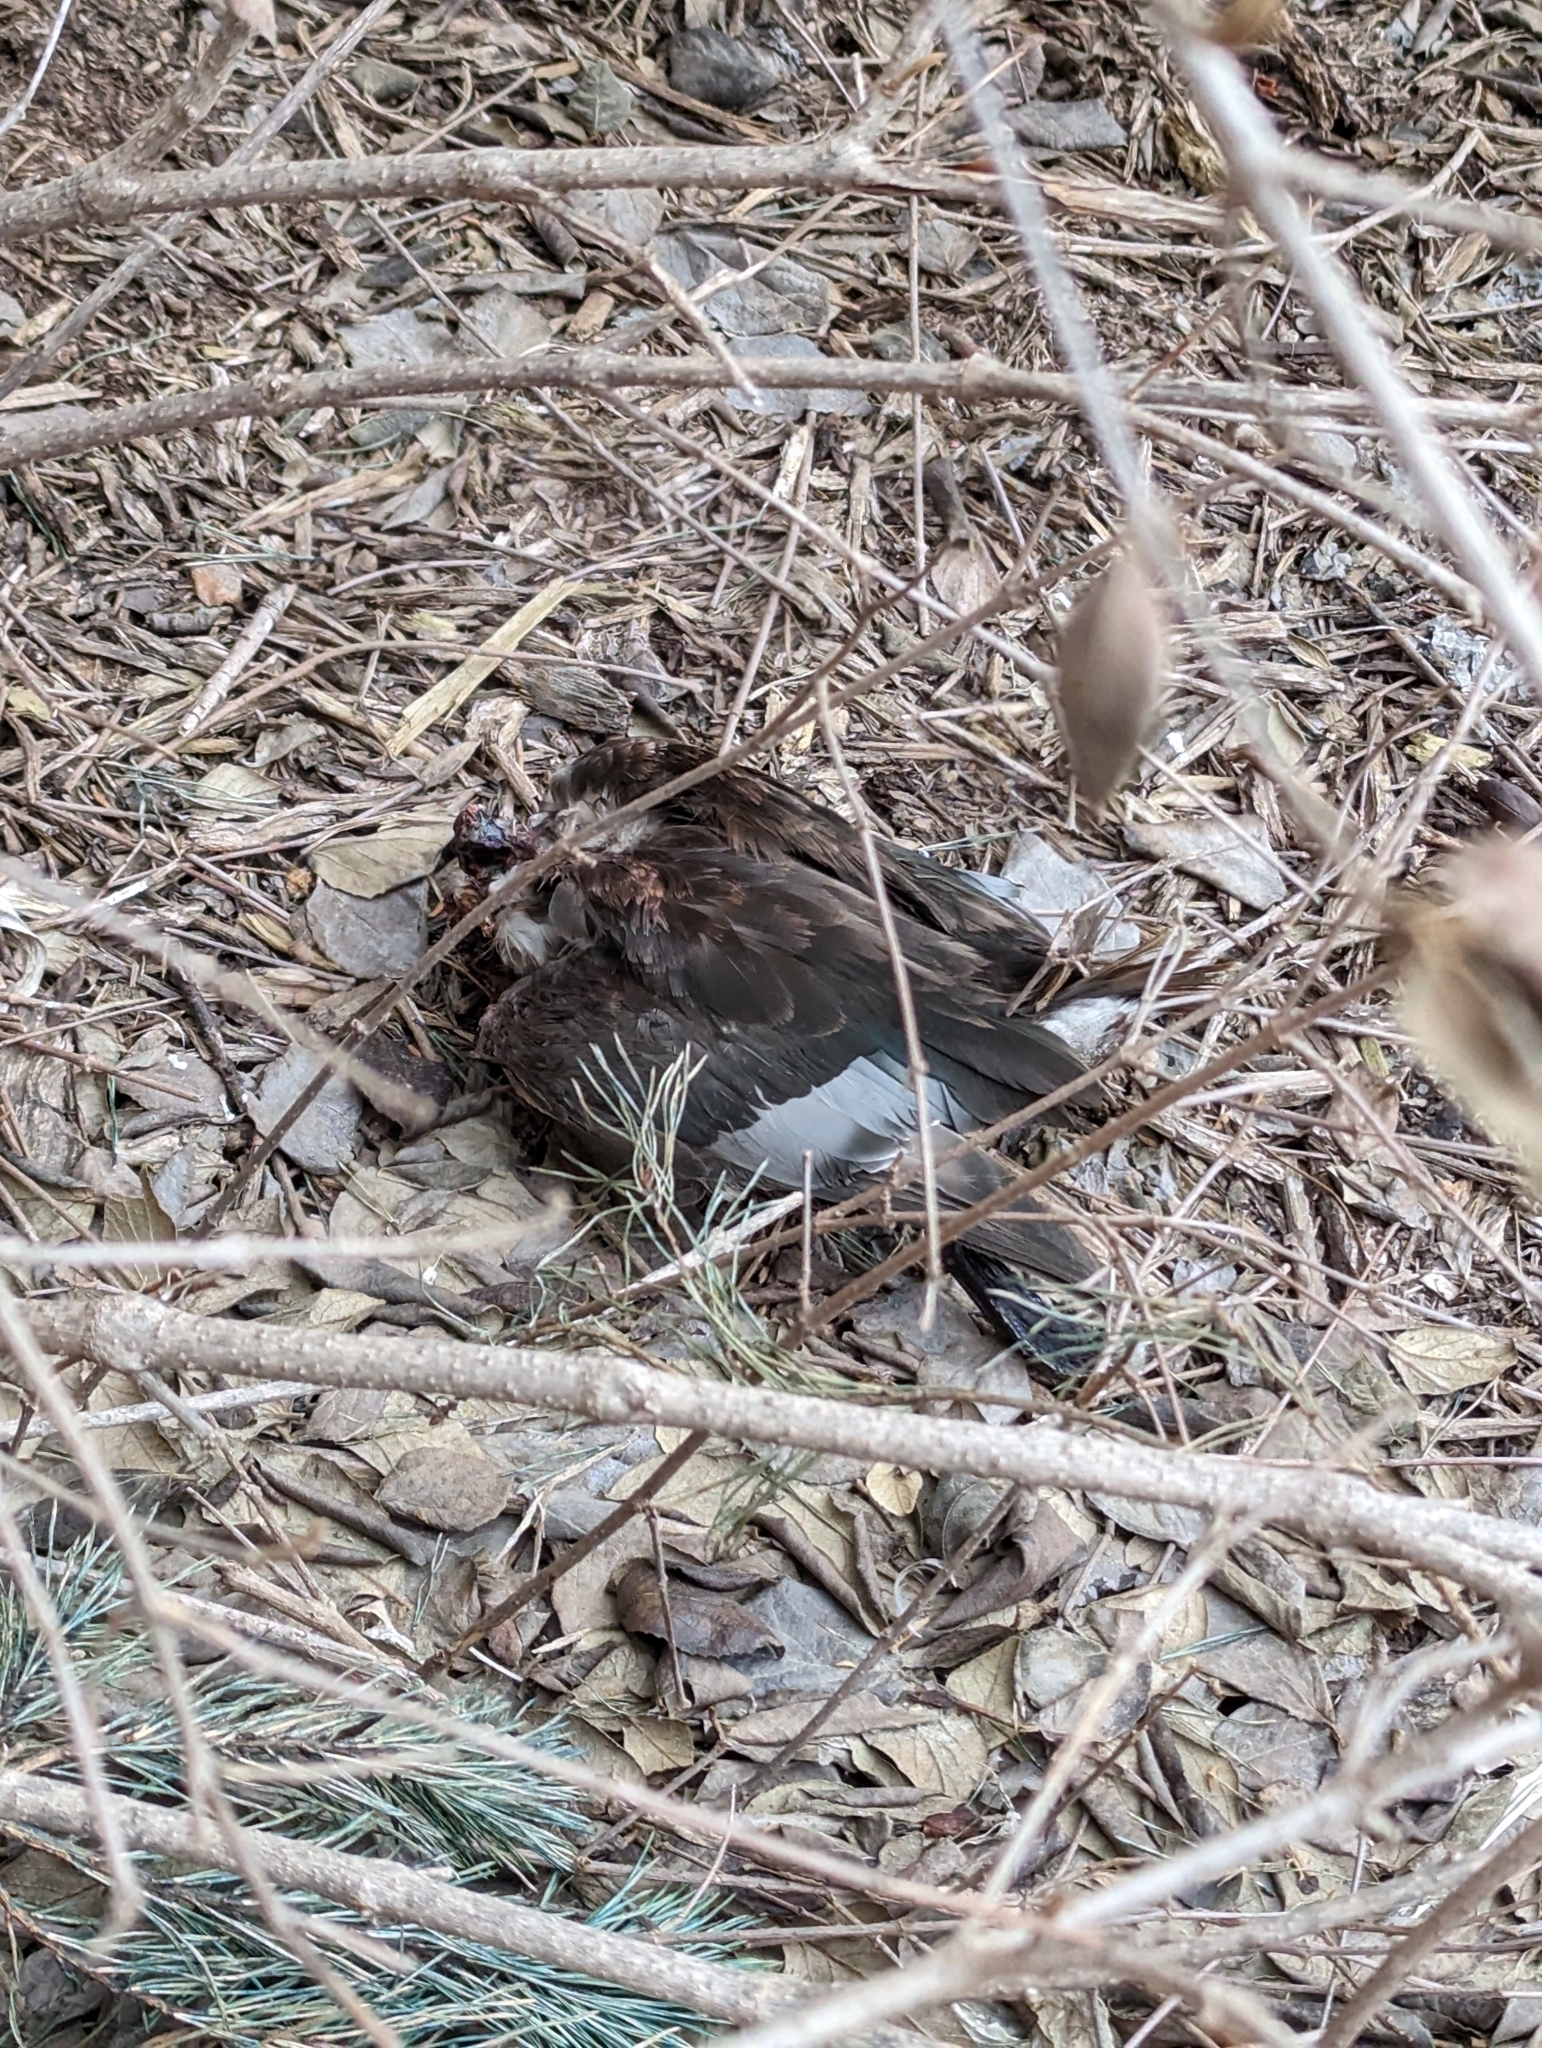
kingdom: Animalia
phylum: Chordata
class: Aves
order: Columbiformes
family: Columbidae
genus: Columba
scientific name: Columba livia
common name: Rock pigeon
